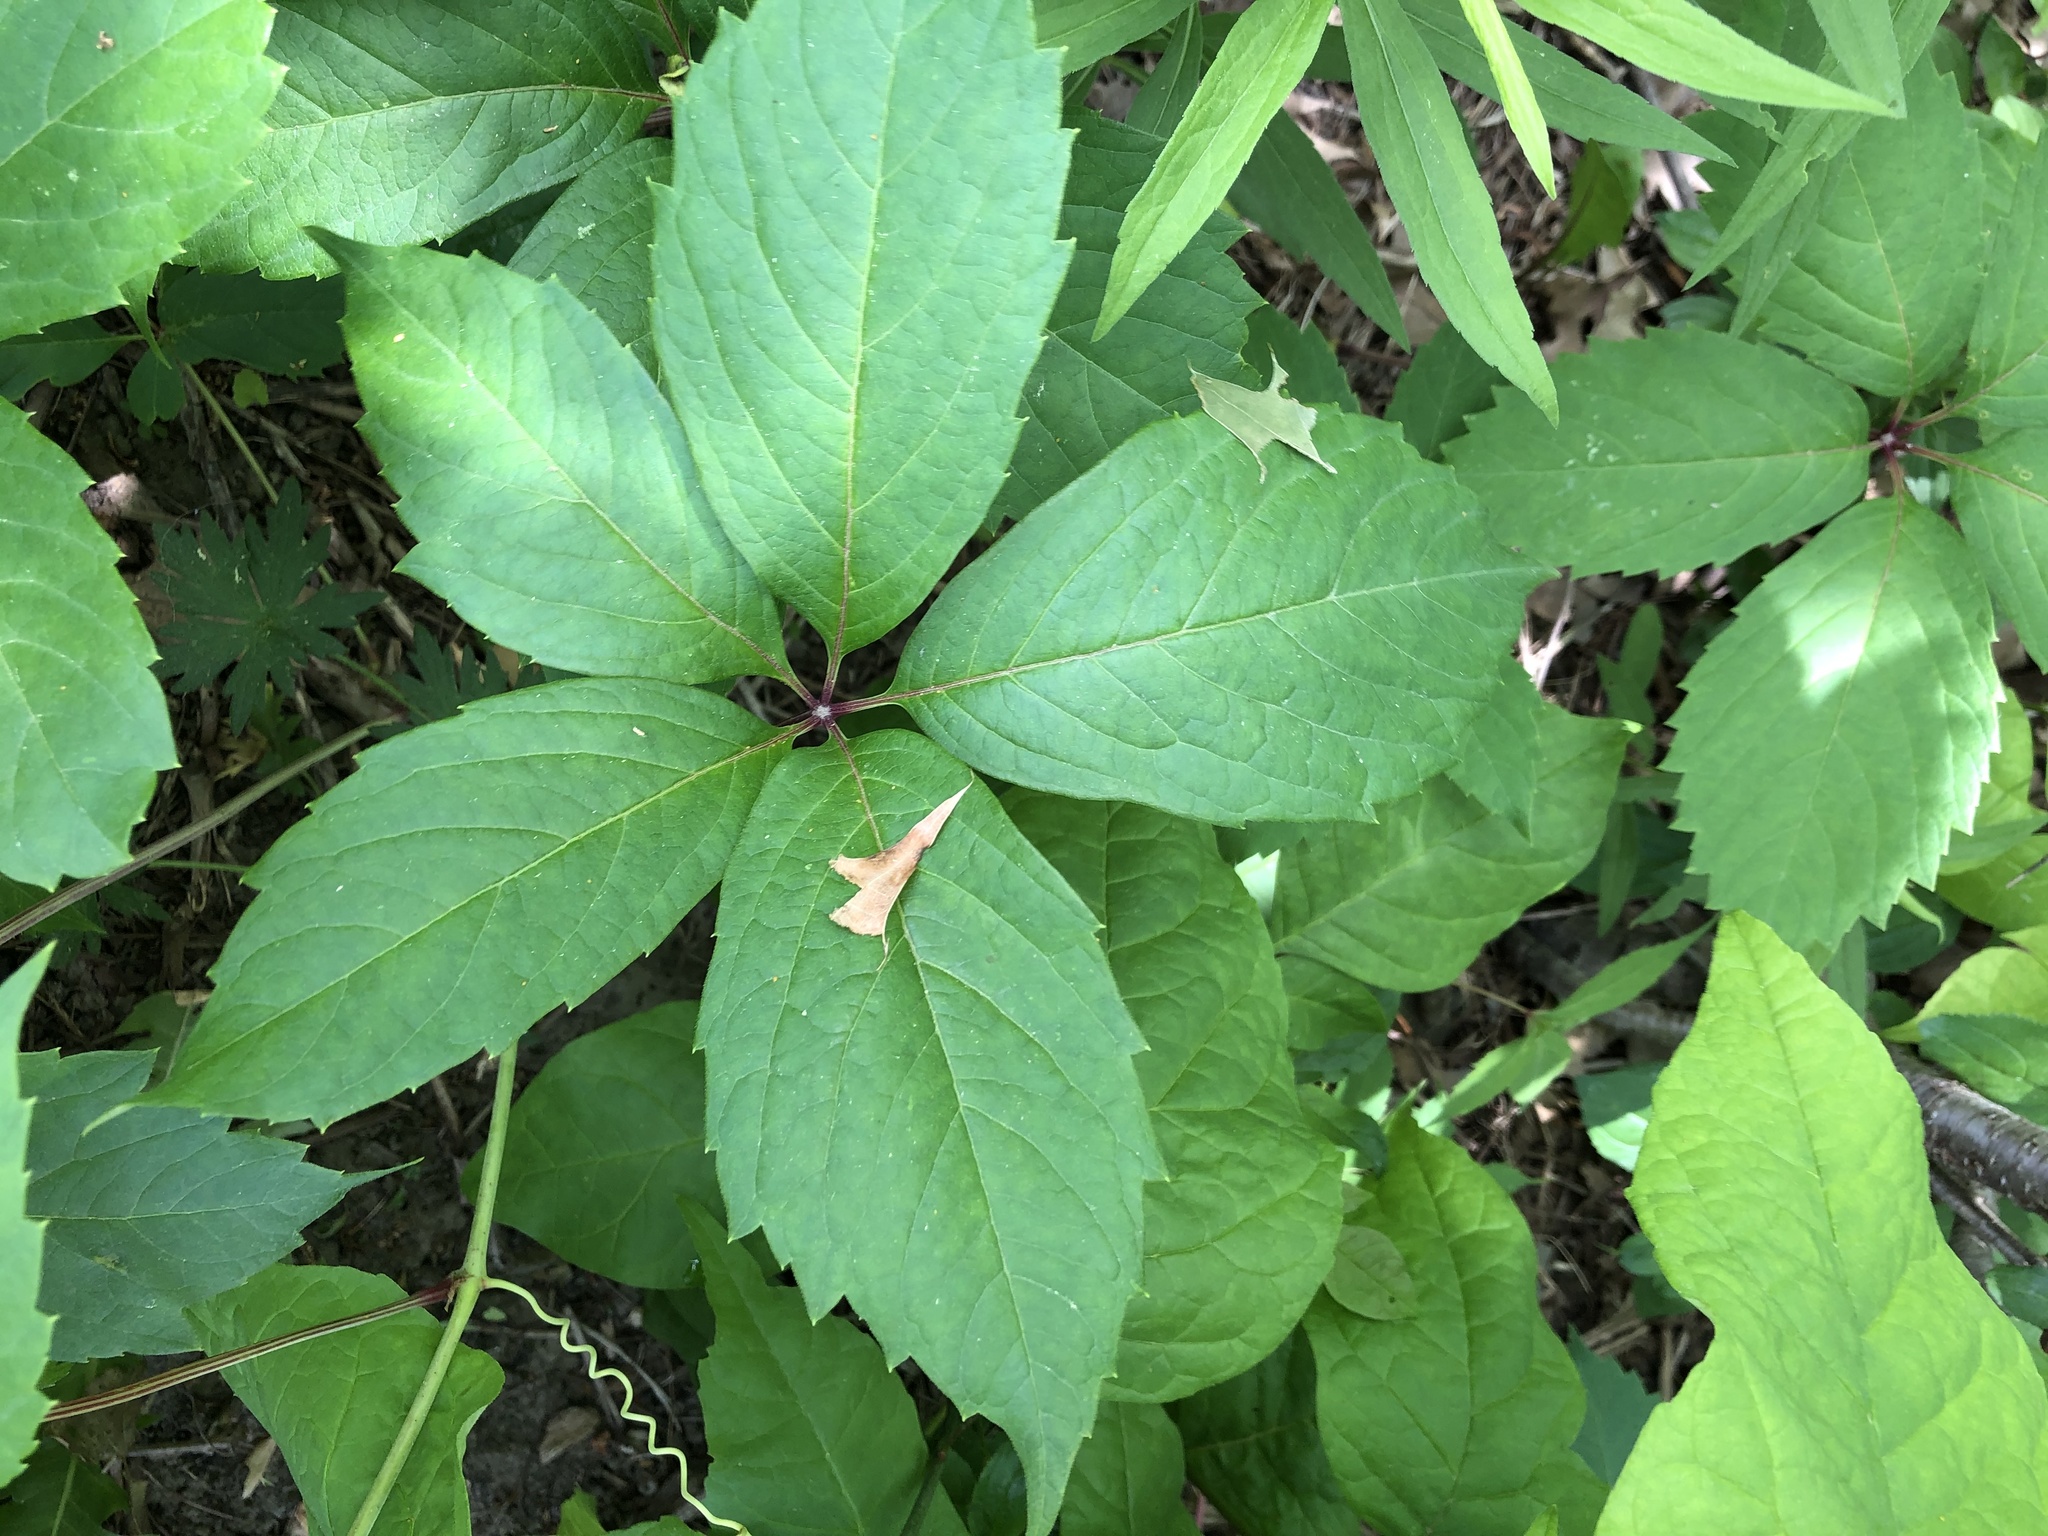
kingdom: Plantae
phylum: Tracheophyta
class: Magnoliopsida
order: Vitales
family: Vitaceae
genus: Parthenocissus
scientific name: Parthenocissus quinquefolia
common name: Virginia-creeper
